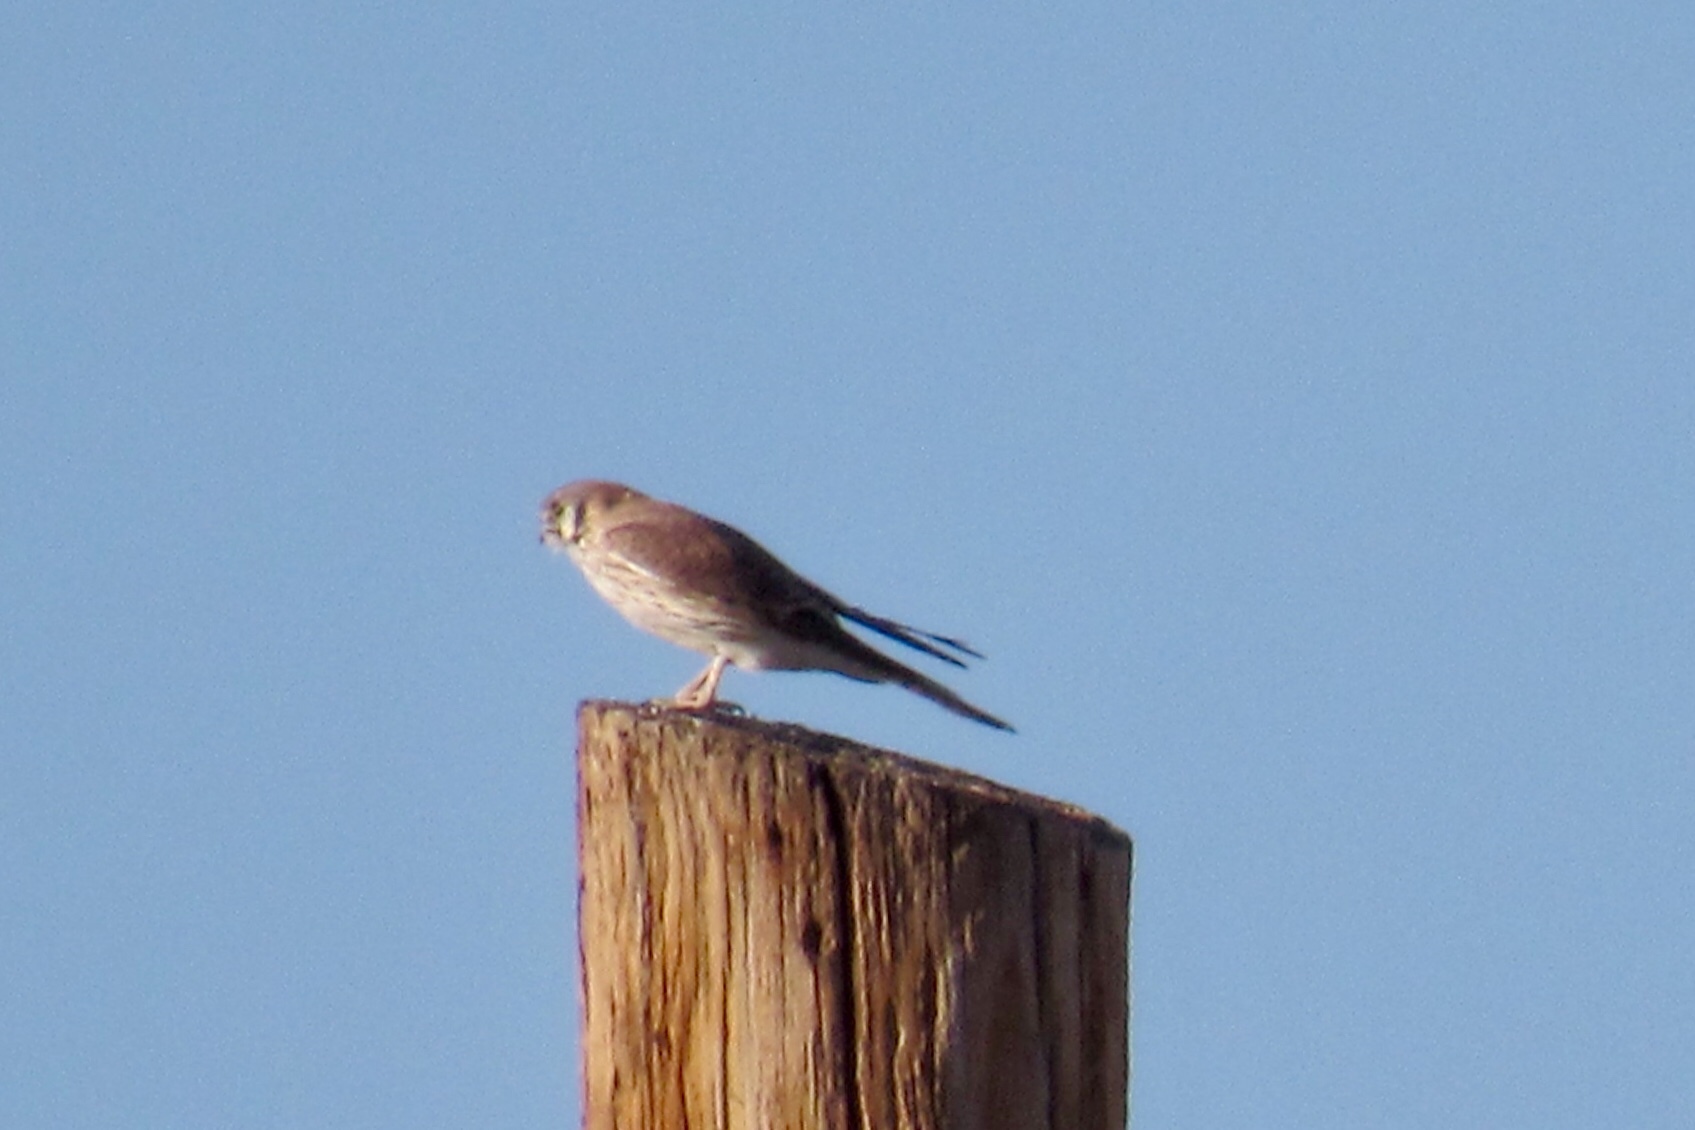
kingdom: Animalia
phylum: Chordata
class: Aves
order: Falconiformes
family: Falconidae
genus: Falco
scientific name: Falco sparverius
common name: American kestrel
